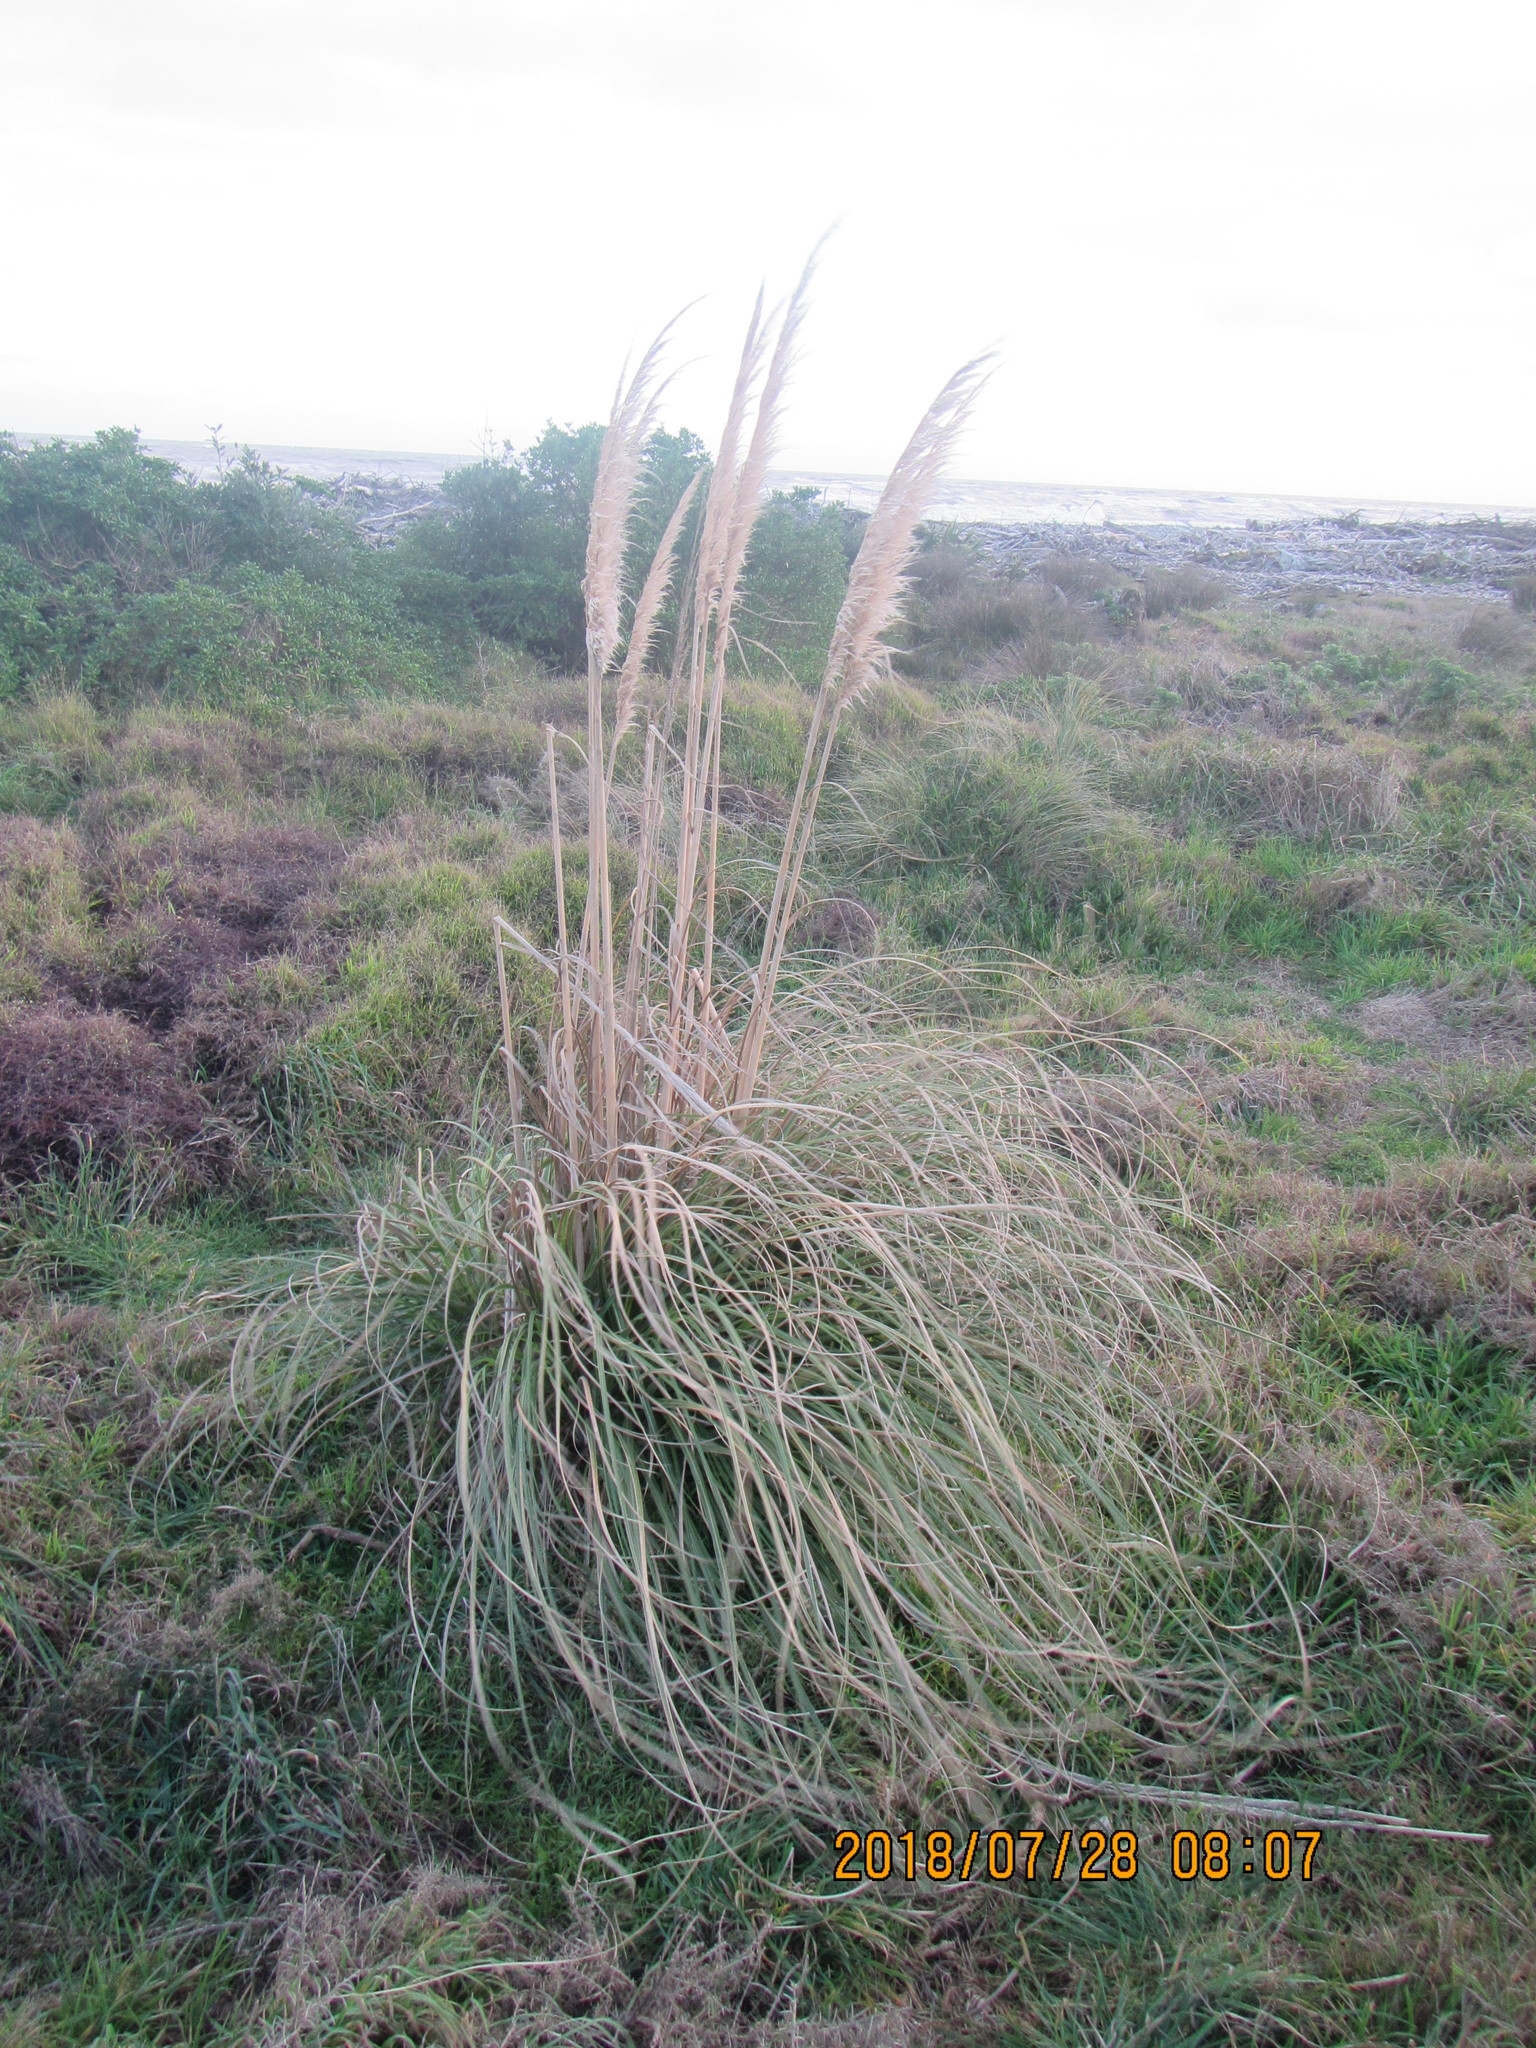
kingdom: Plantae
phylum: Tracheophyta
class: Liliopsida
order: Poales
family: Poaceae
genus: Cortaderia
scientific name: Cortaderia selloana
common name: Uruguayan pampas grass
